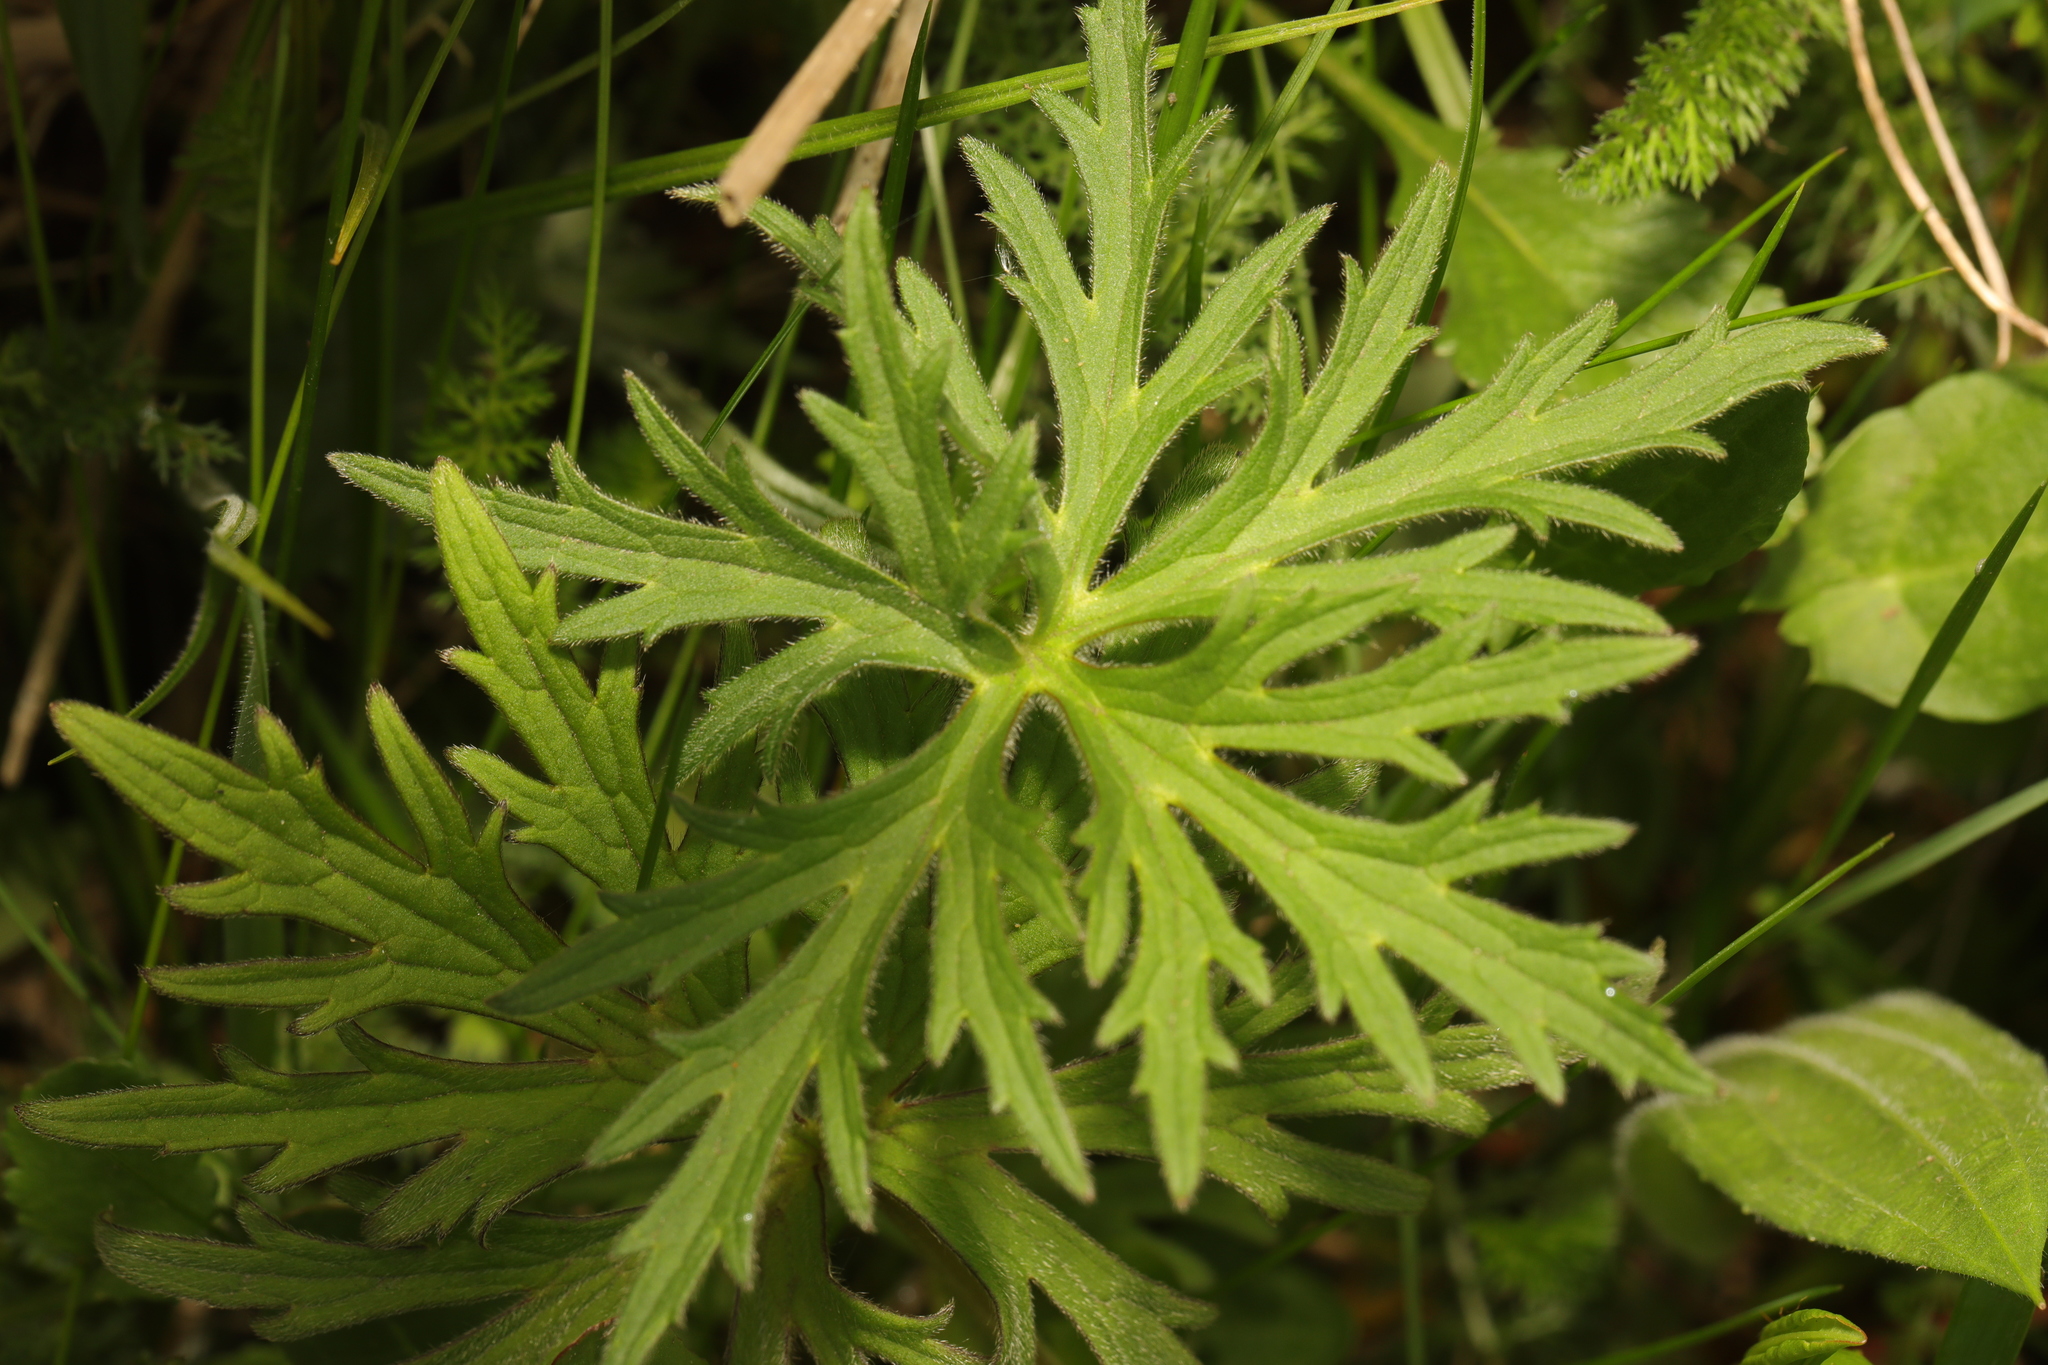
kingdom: Plantae
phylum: Tracheophyta
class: Magnoliopsida
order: Ranunculales
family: Ranunculaceae
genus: Ranunculus
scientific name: Ranunculus acris
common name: Meadow buttercup
